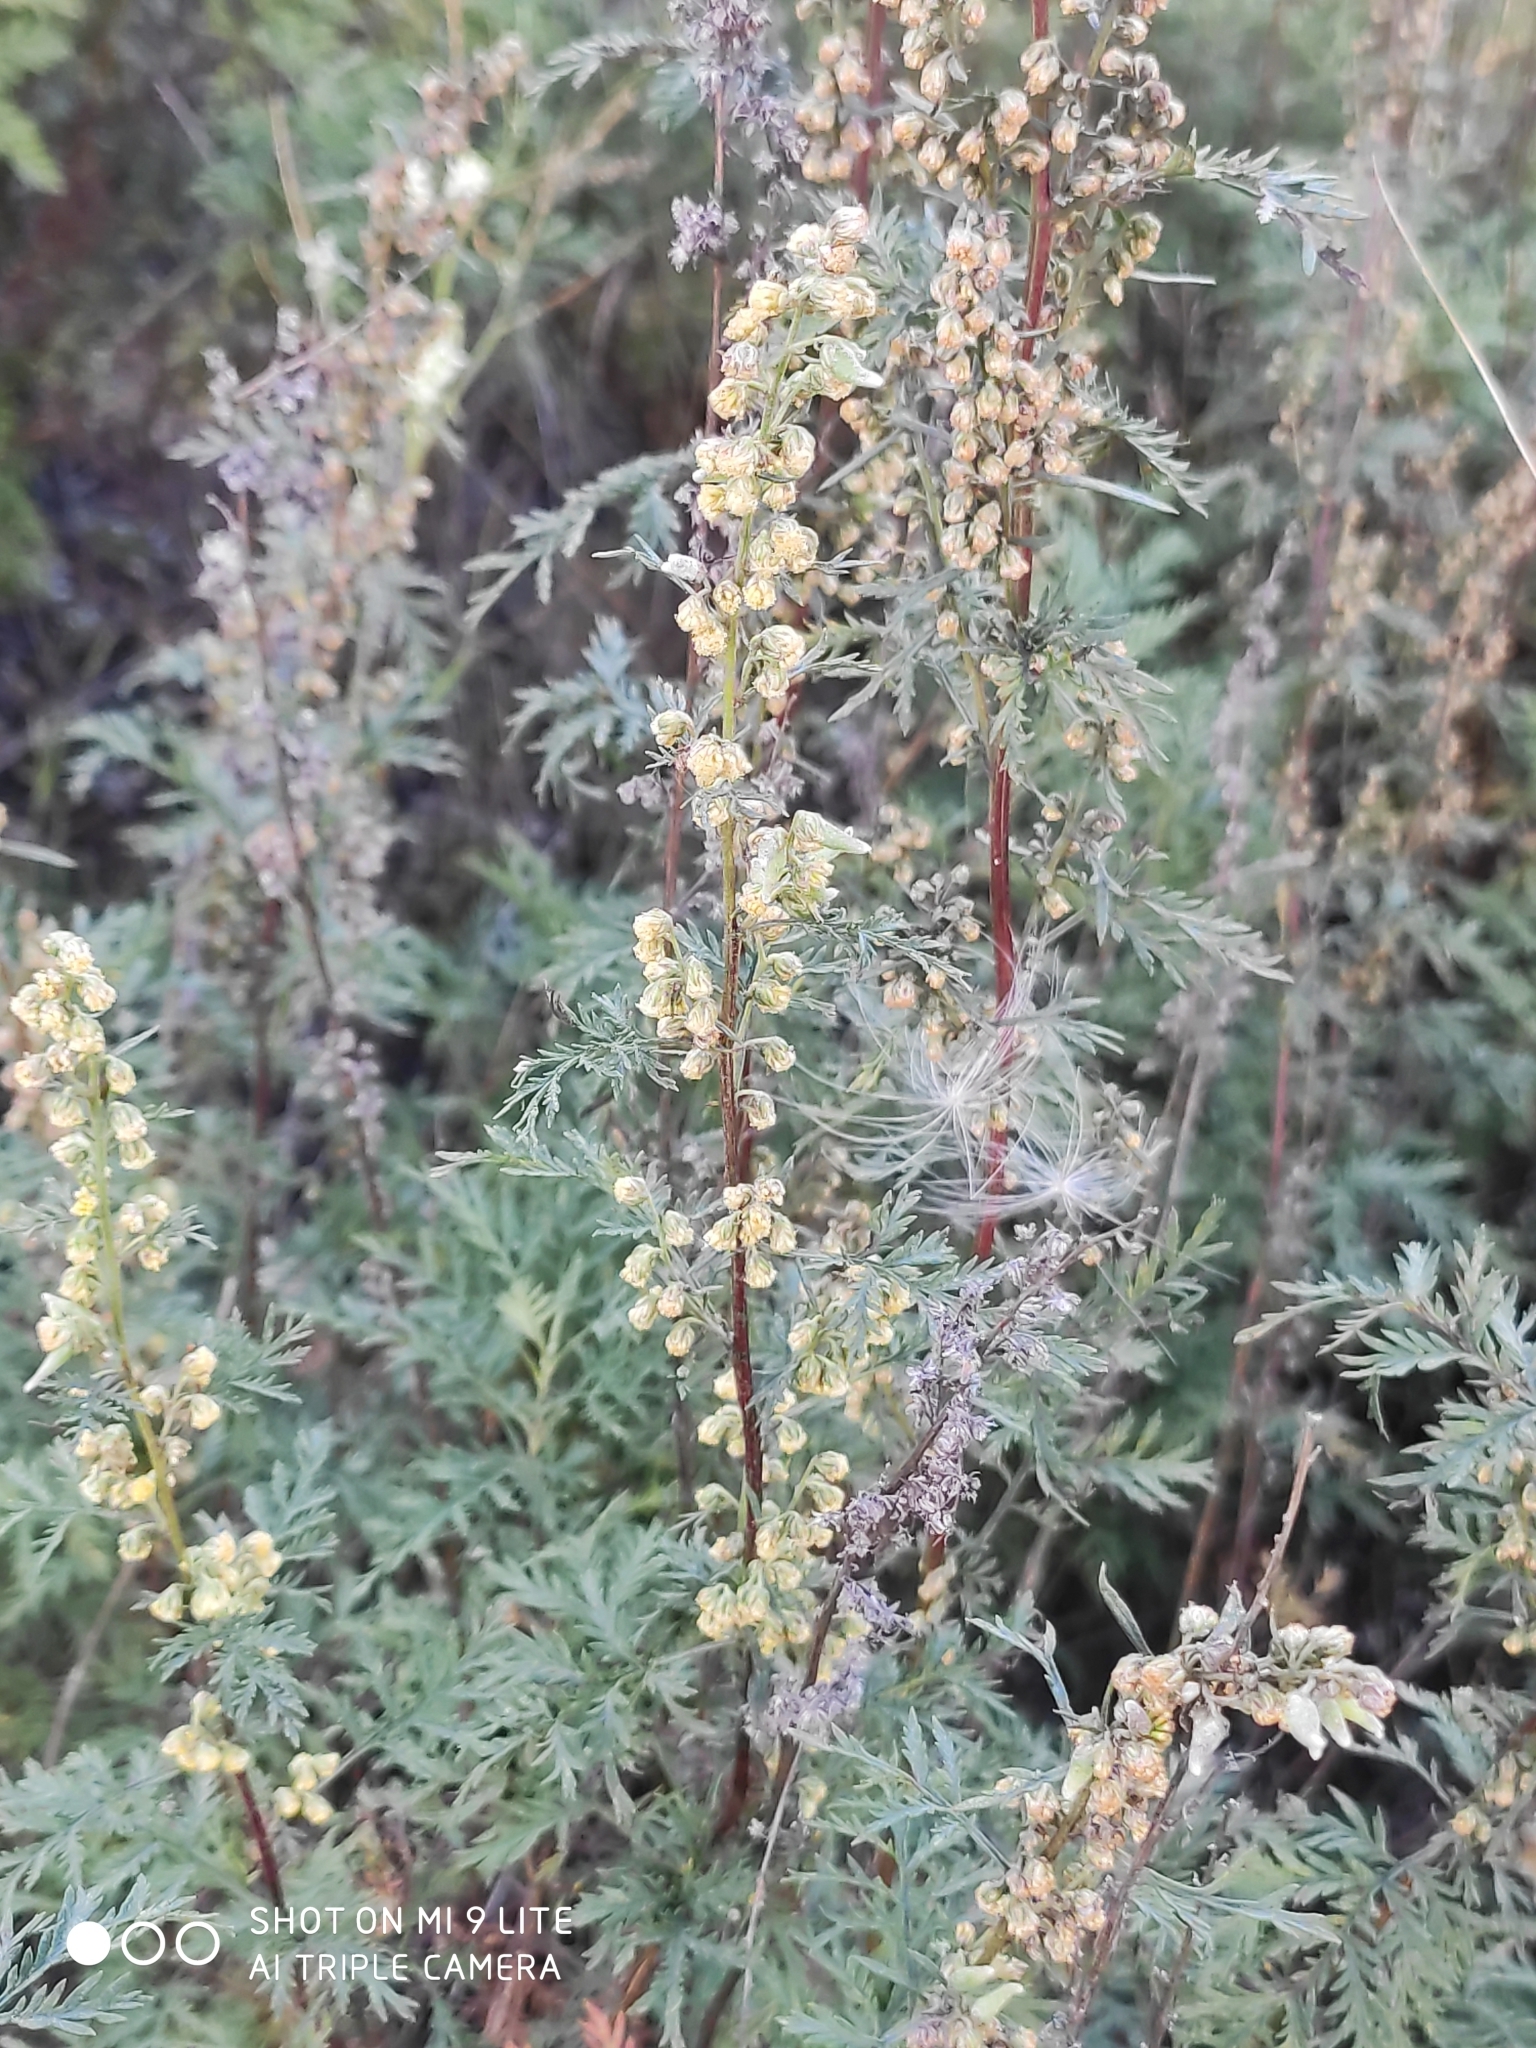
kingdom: Plantae
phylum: Tracheophyta
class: Magnoliopsida
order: Asterales
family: Asteraceae
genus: Artemisia
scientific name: Artemisia gmelinii
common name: Gmelin's wormwood
